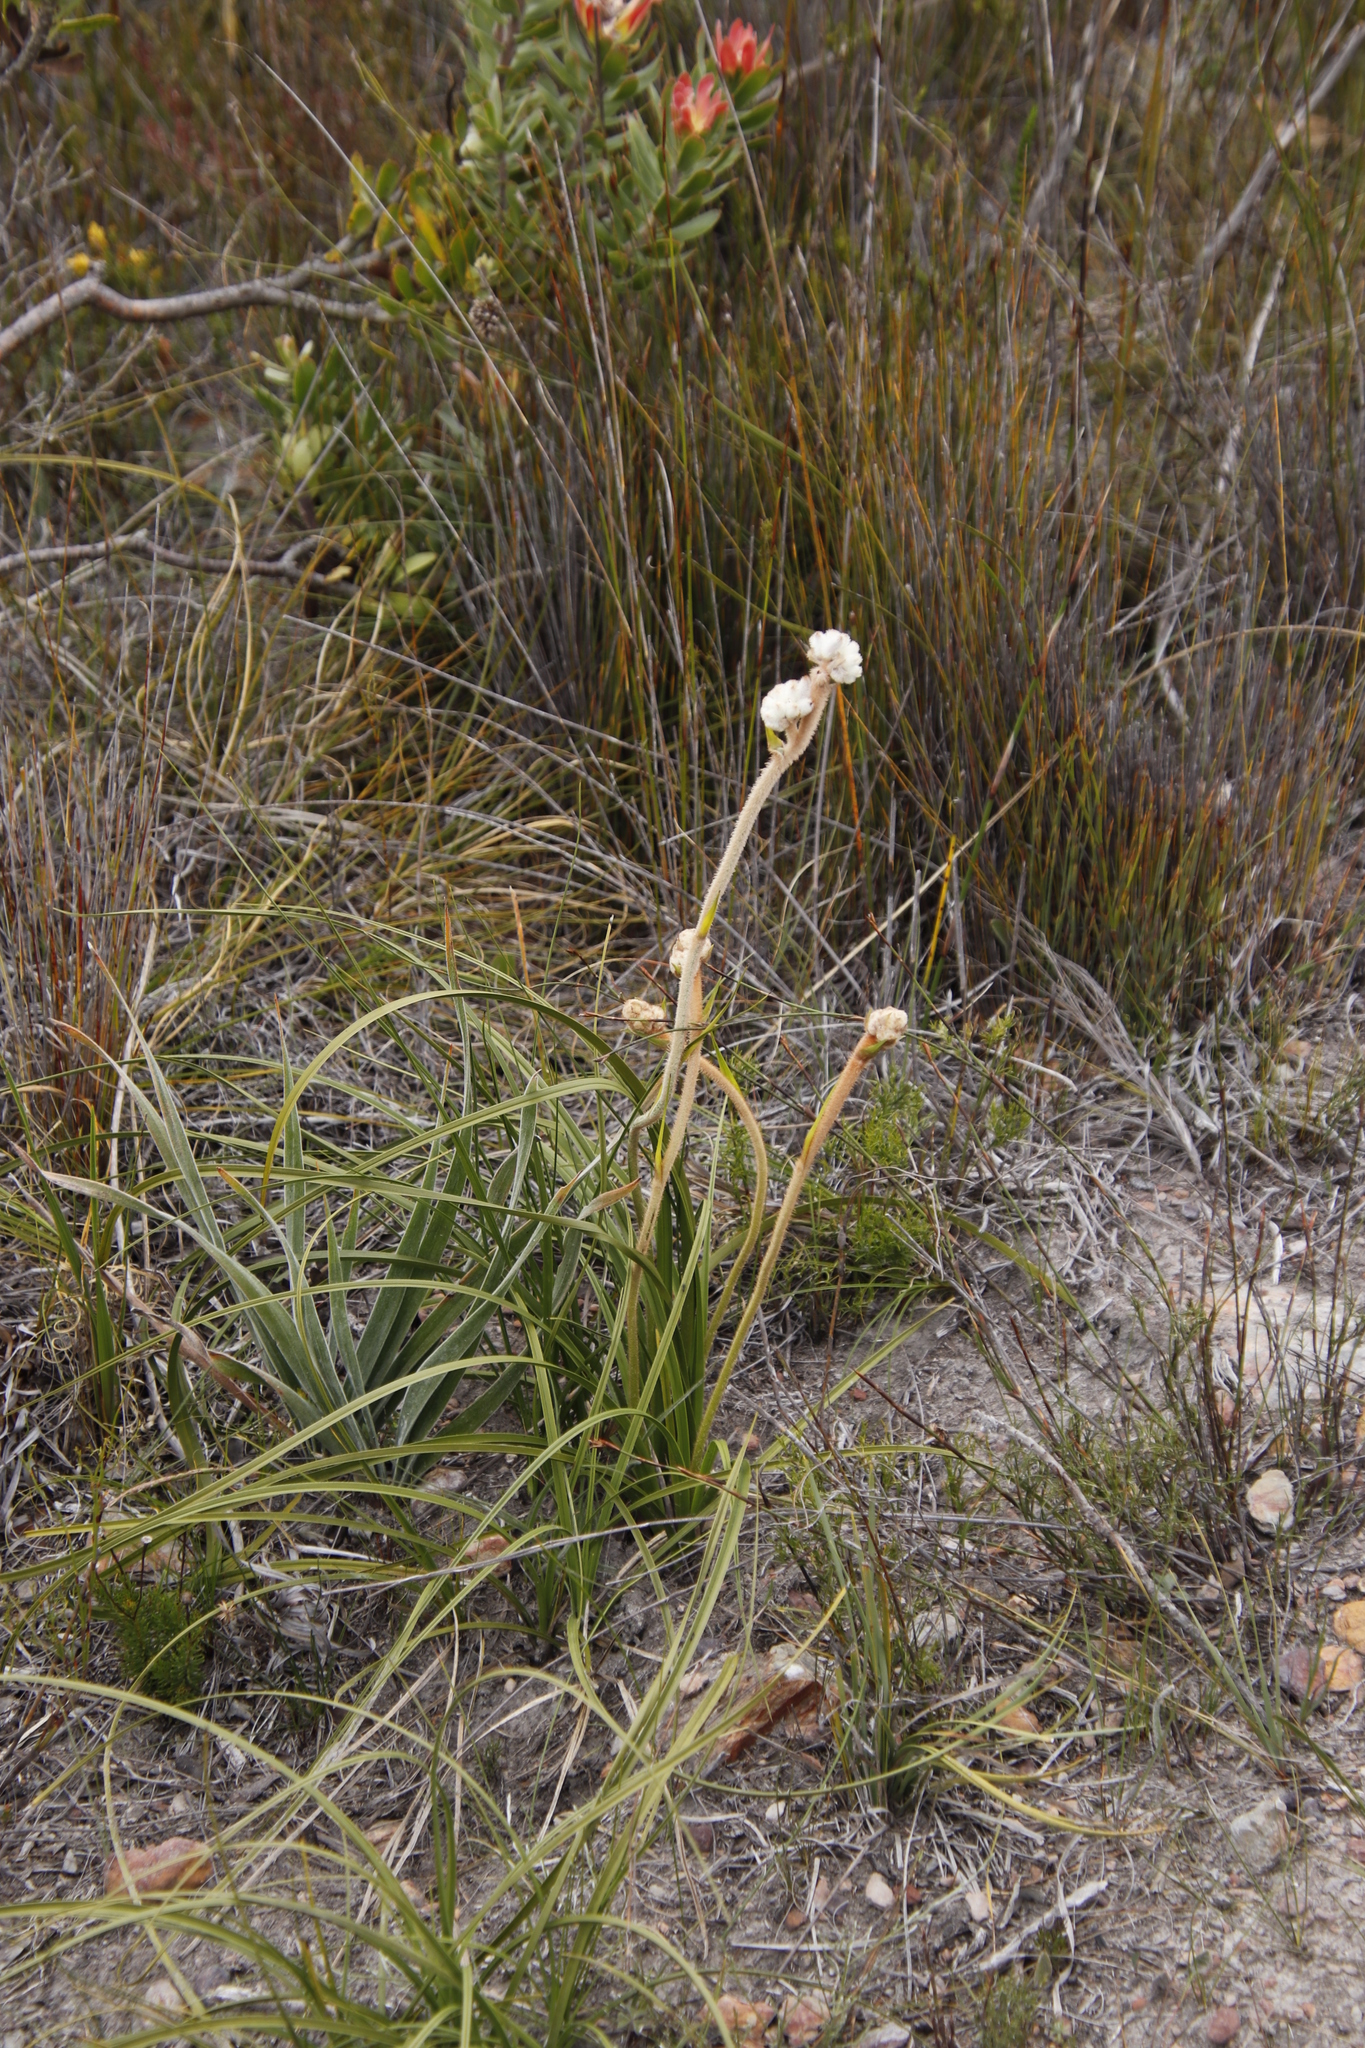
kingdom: Plantae
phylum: Tracheophyta
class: Liliopsida
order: Asparagales
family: Lanariaceae
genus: Lanaria
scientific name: Lanaria lanata
